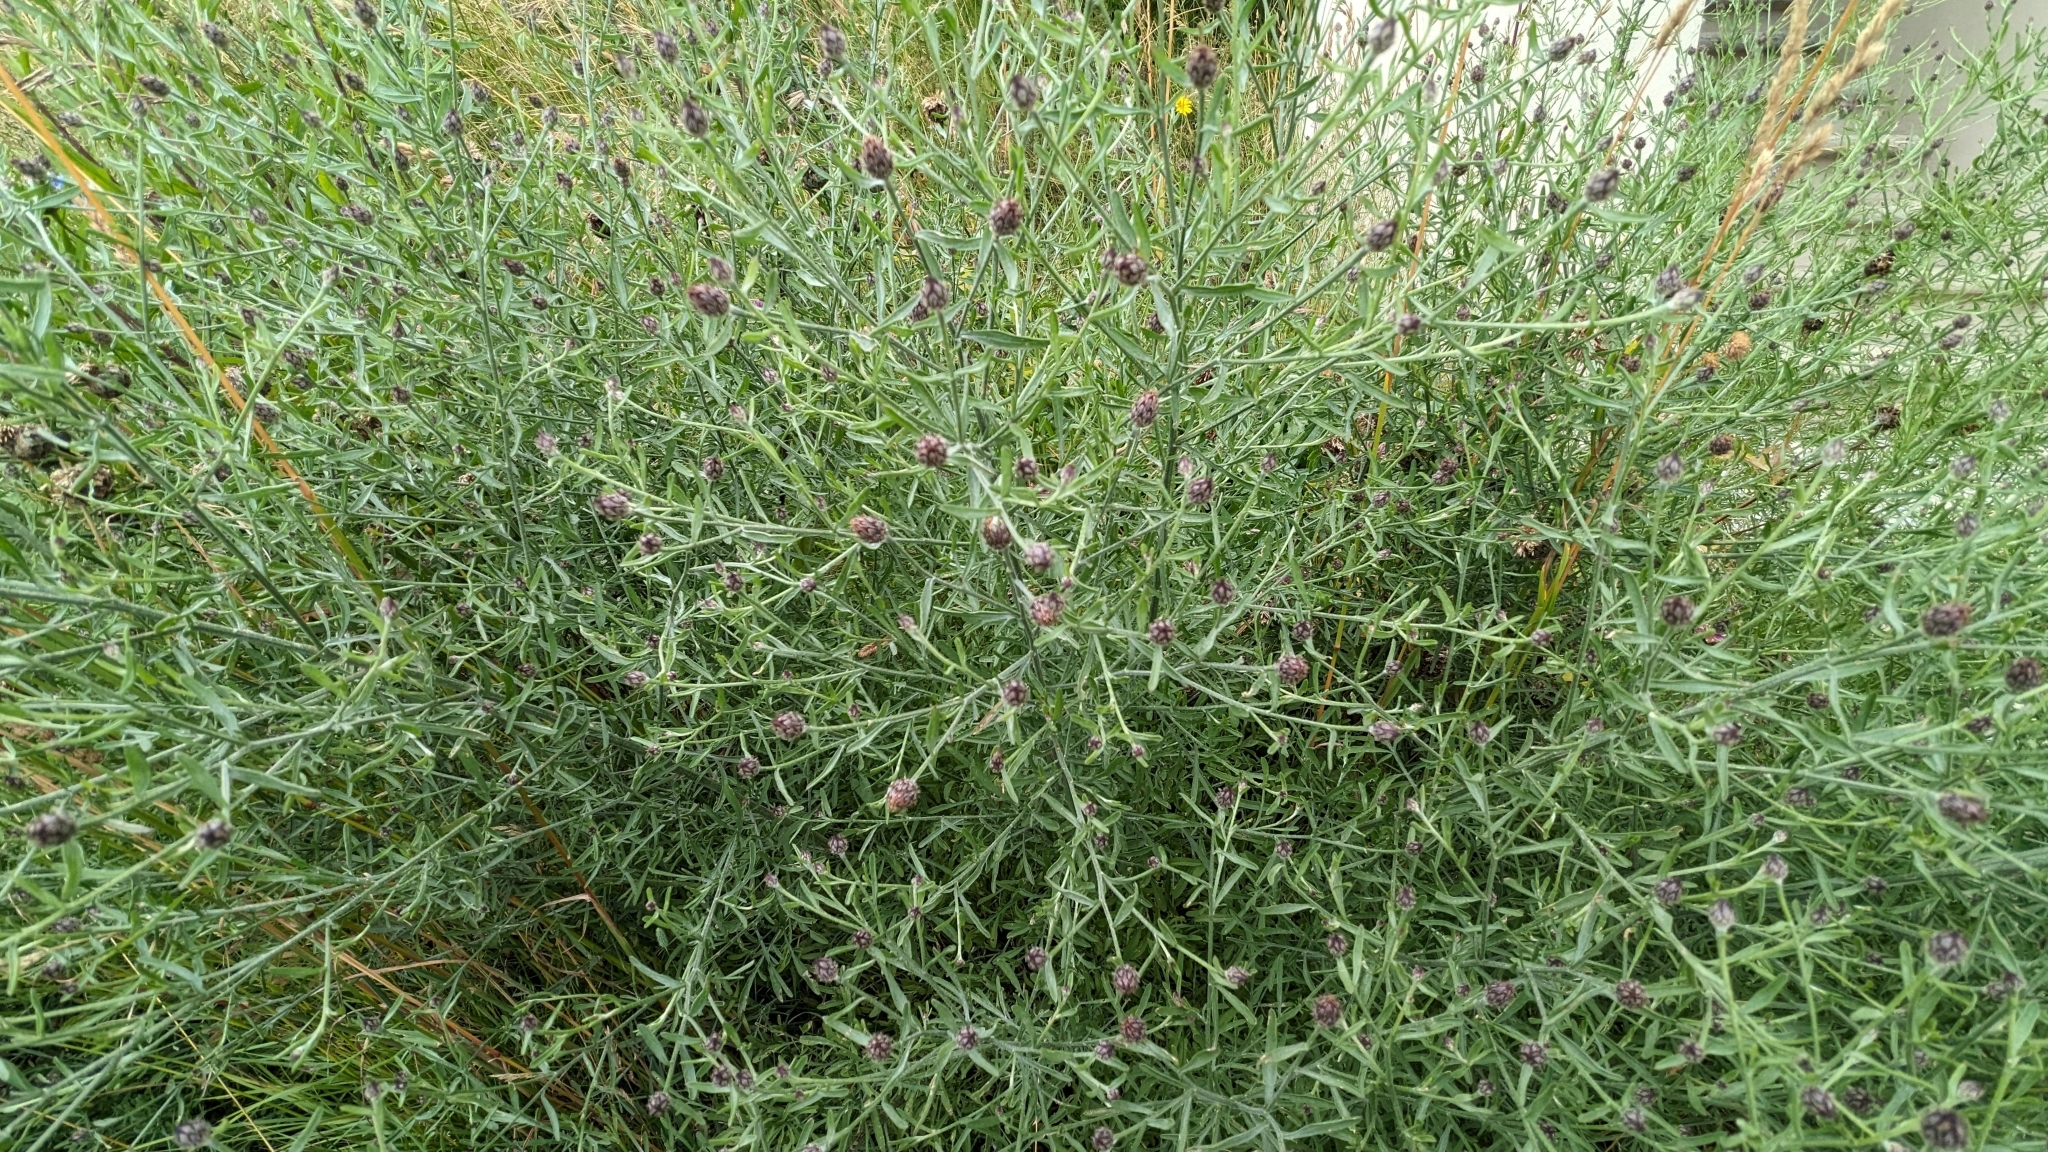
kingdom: Plantae
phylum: Tracheophyta
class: Magnoliopsida
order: Asterales
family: Asteraceae
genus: Centaurea
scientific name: Centaurea jacea
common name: Brown knapweed
